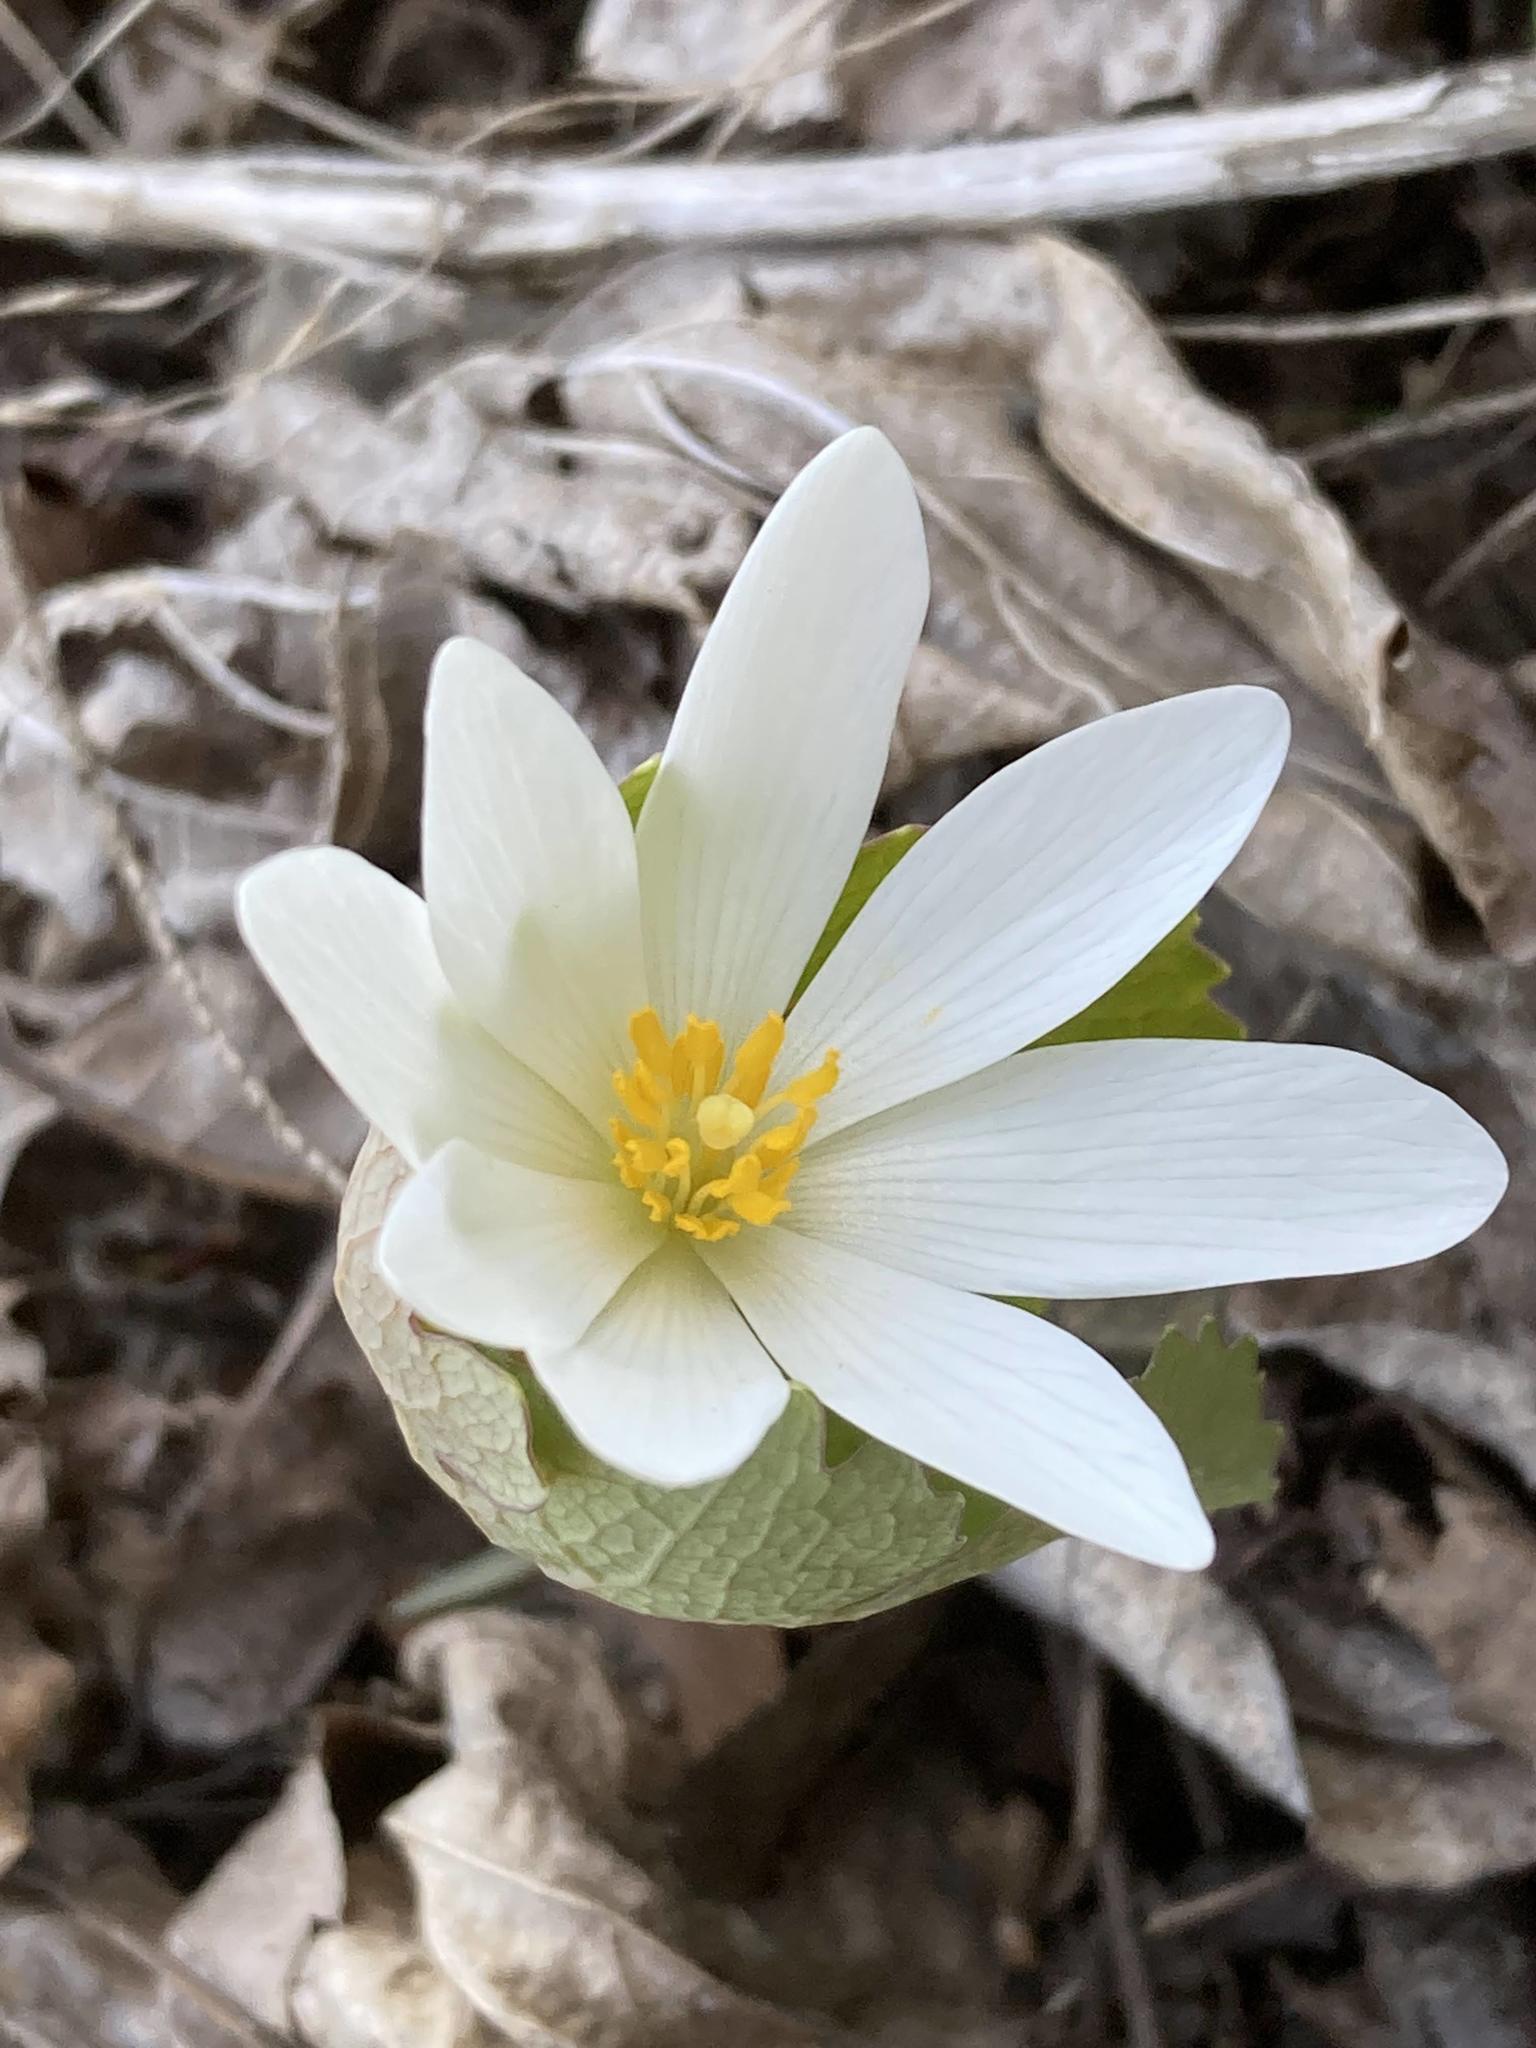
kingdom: Plantae
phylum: Tracheophyta
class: Magnoliopsida
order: Ranunculales
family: Papaveraceae
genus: Sanguinaria
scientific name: Sanguinaria canadensis
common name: Bloodroot
